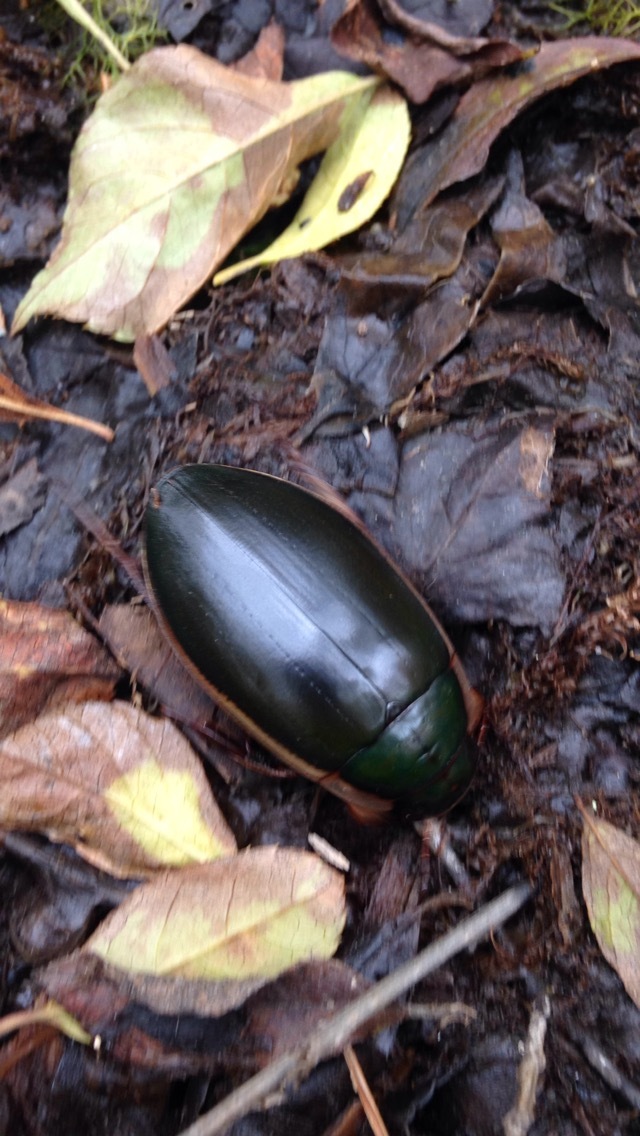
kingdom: Animalia
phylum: Arthropoda
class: Insecta
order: Coleoptera
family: Dytiscidae
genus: Dytiscus
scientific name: Dytiscus
